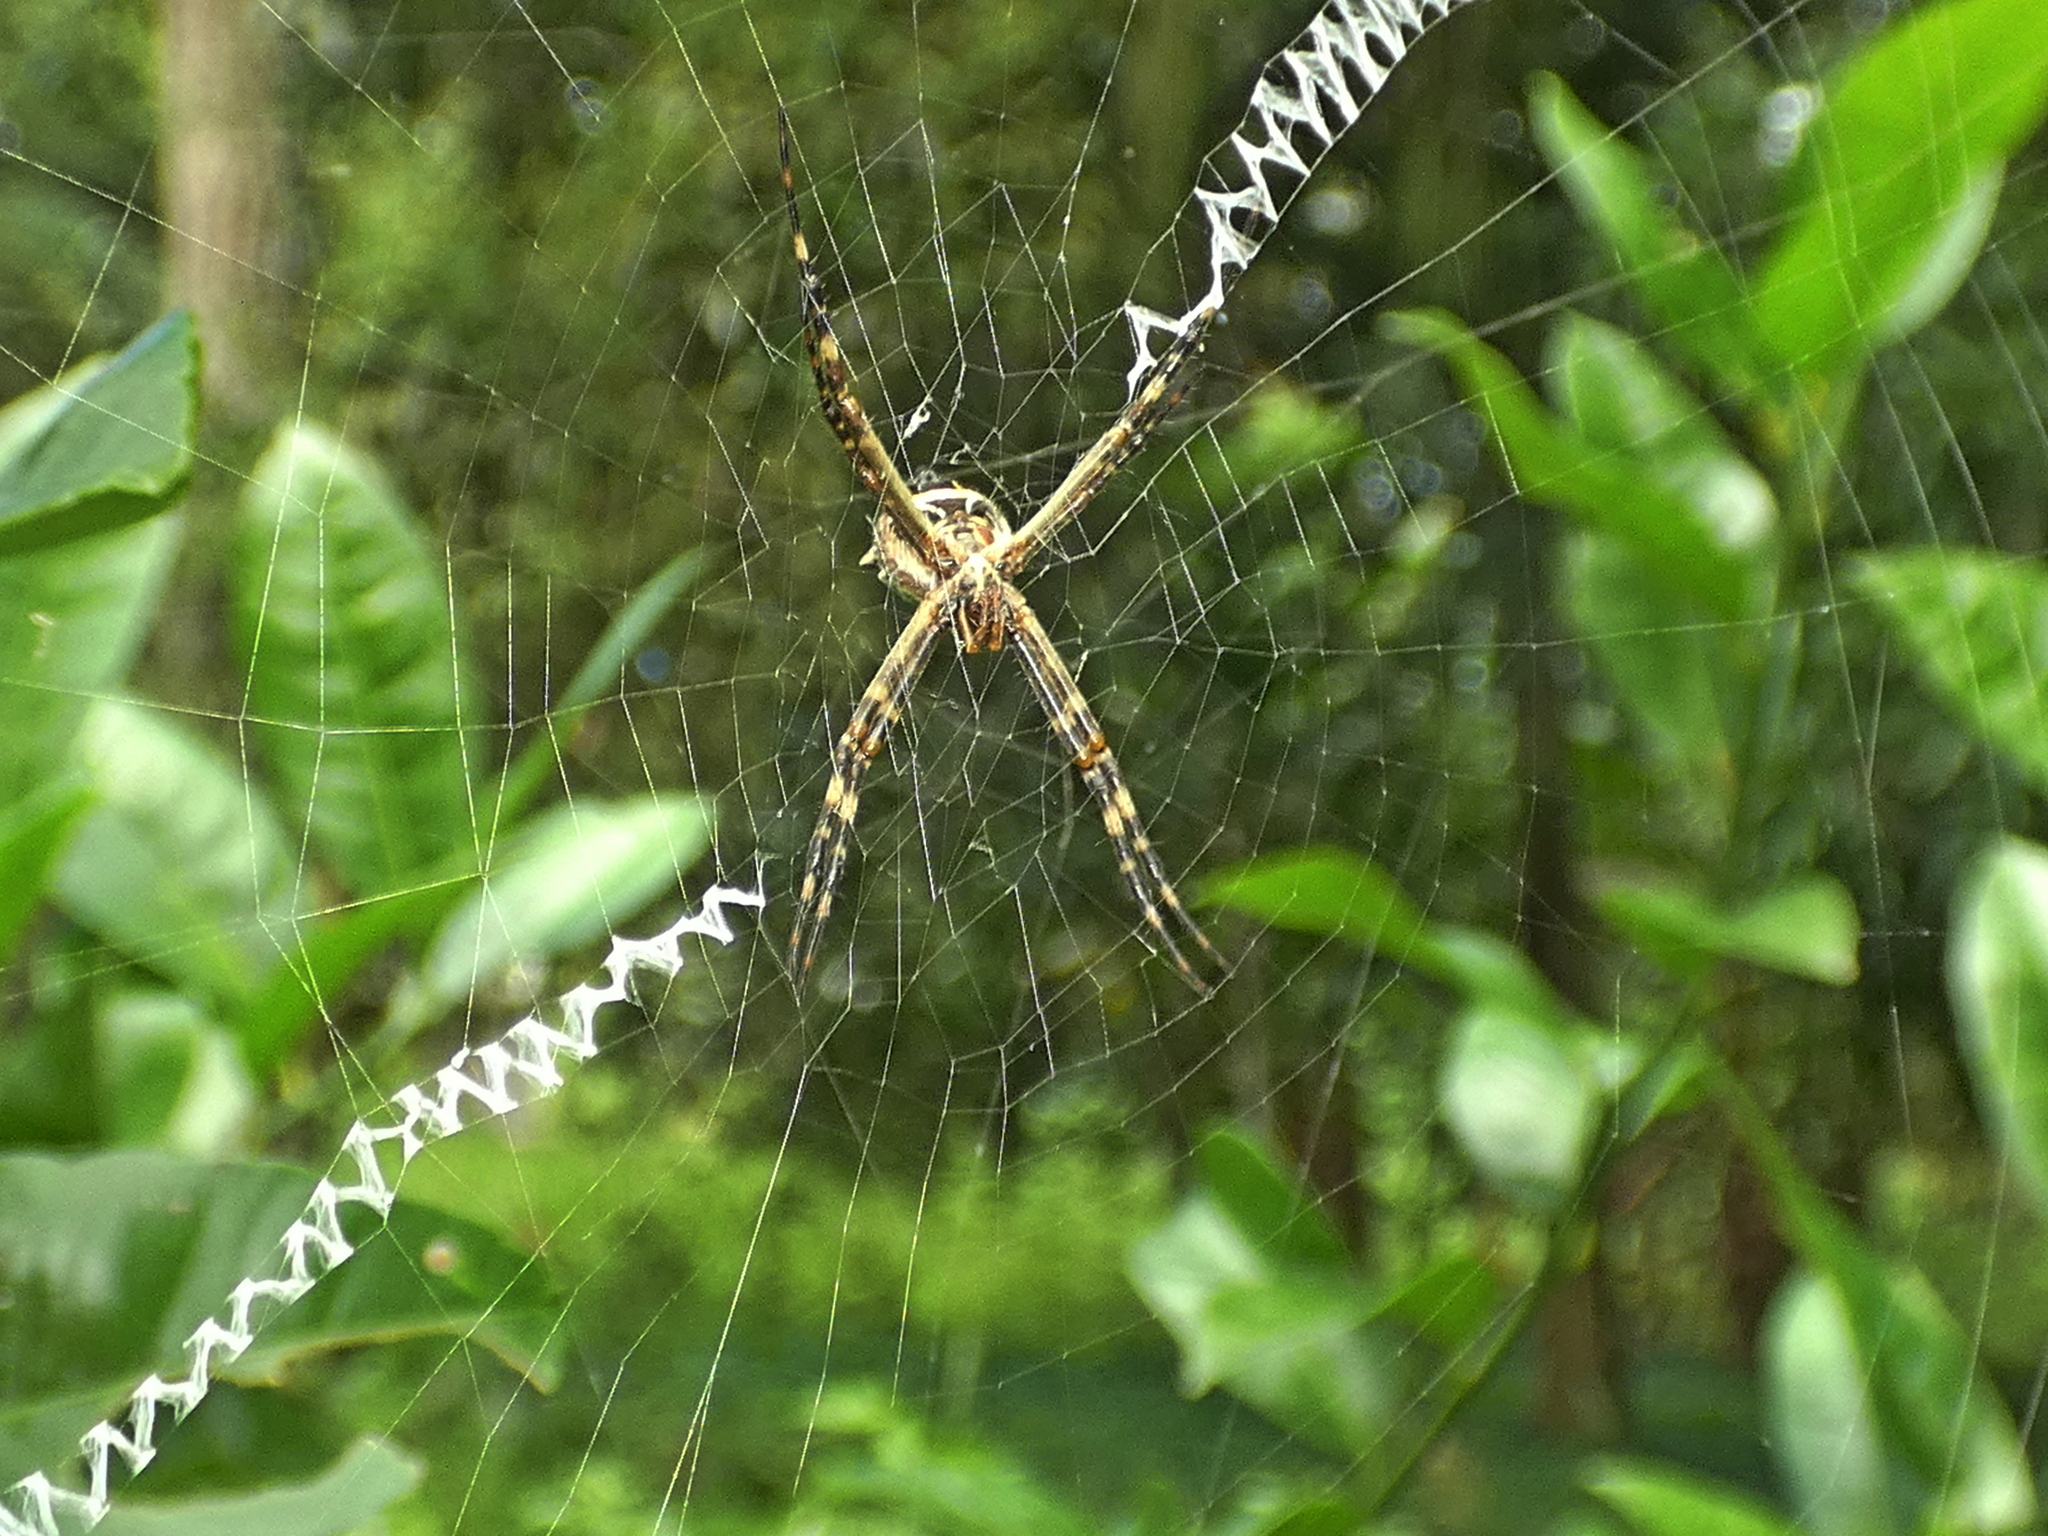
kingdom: Animalia
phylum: Arthropoda
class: Arachnida
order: Araneae
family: Araneidae
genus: Argiope
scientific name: Argiope argentata
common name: Orb weavers
